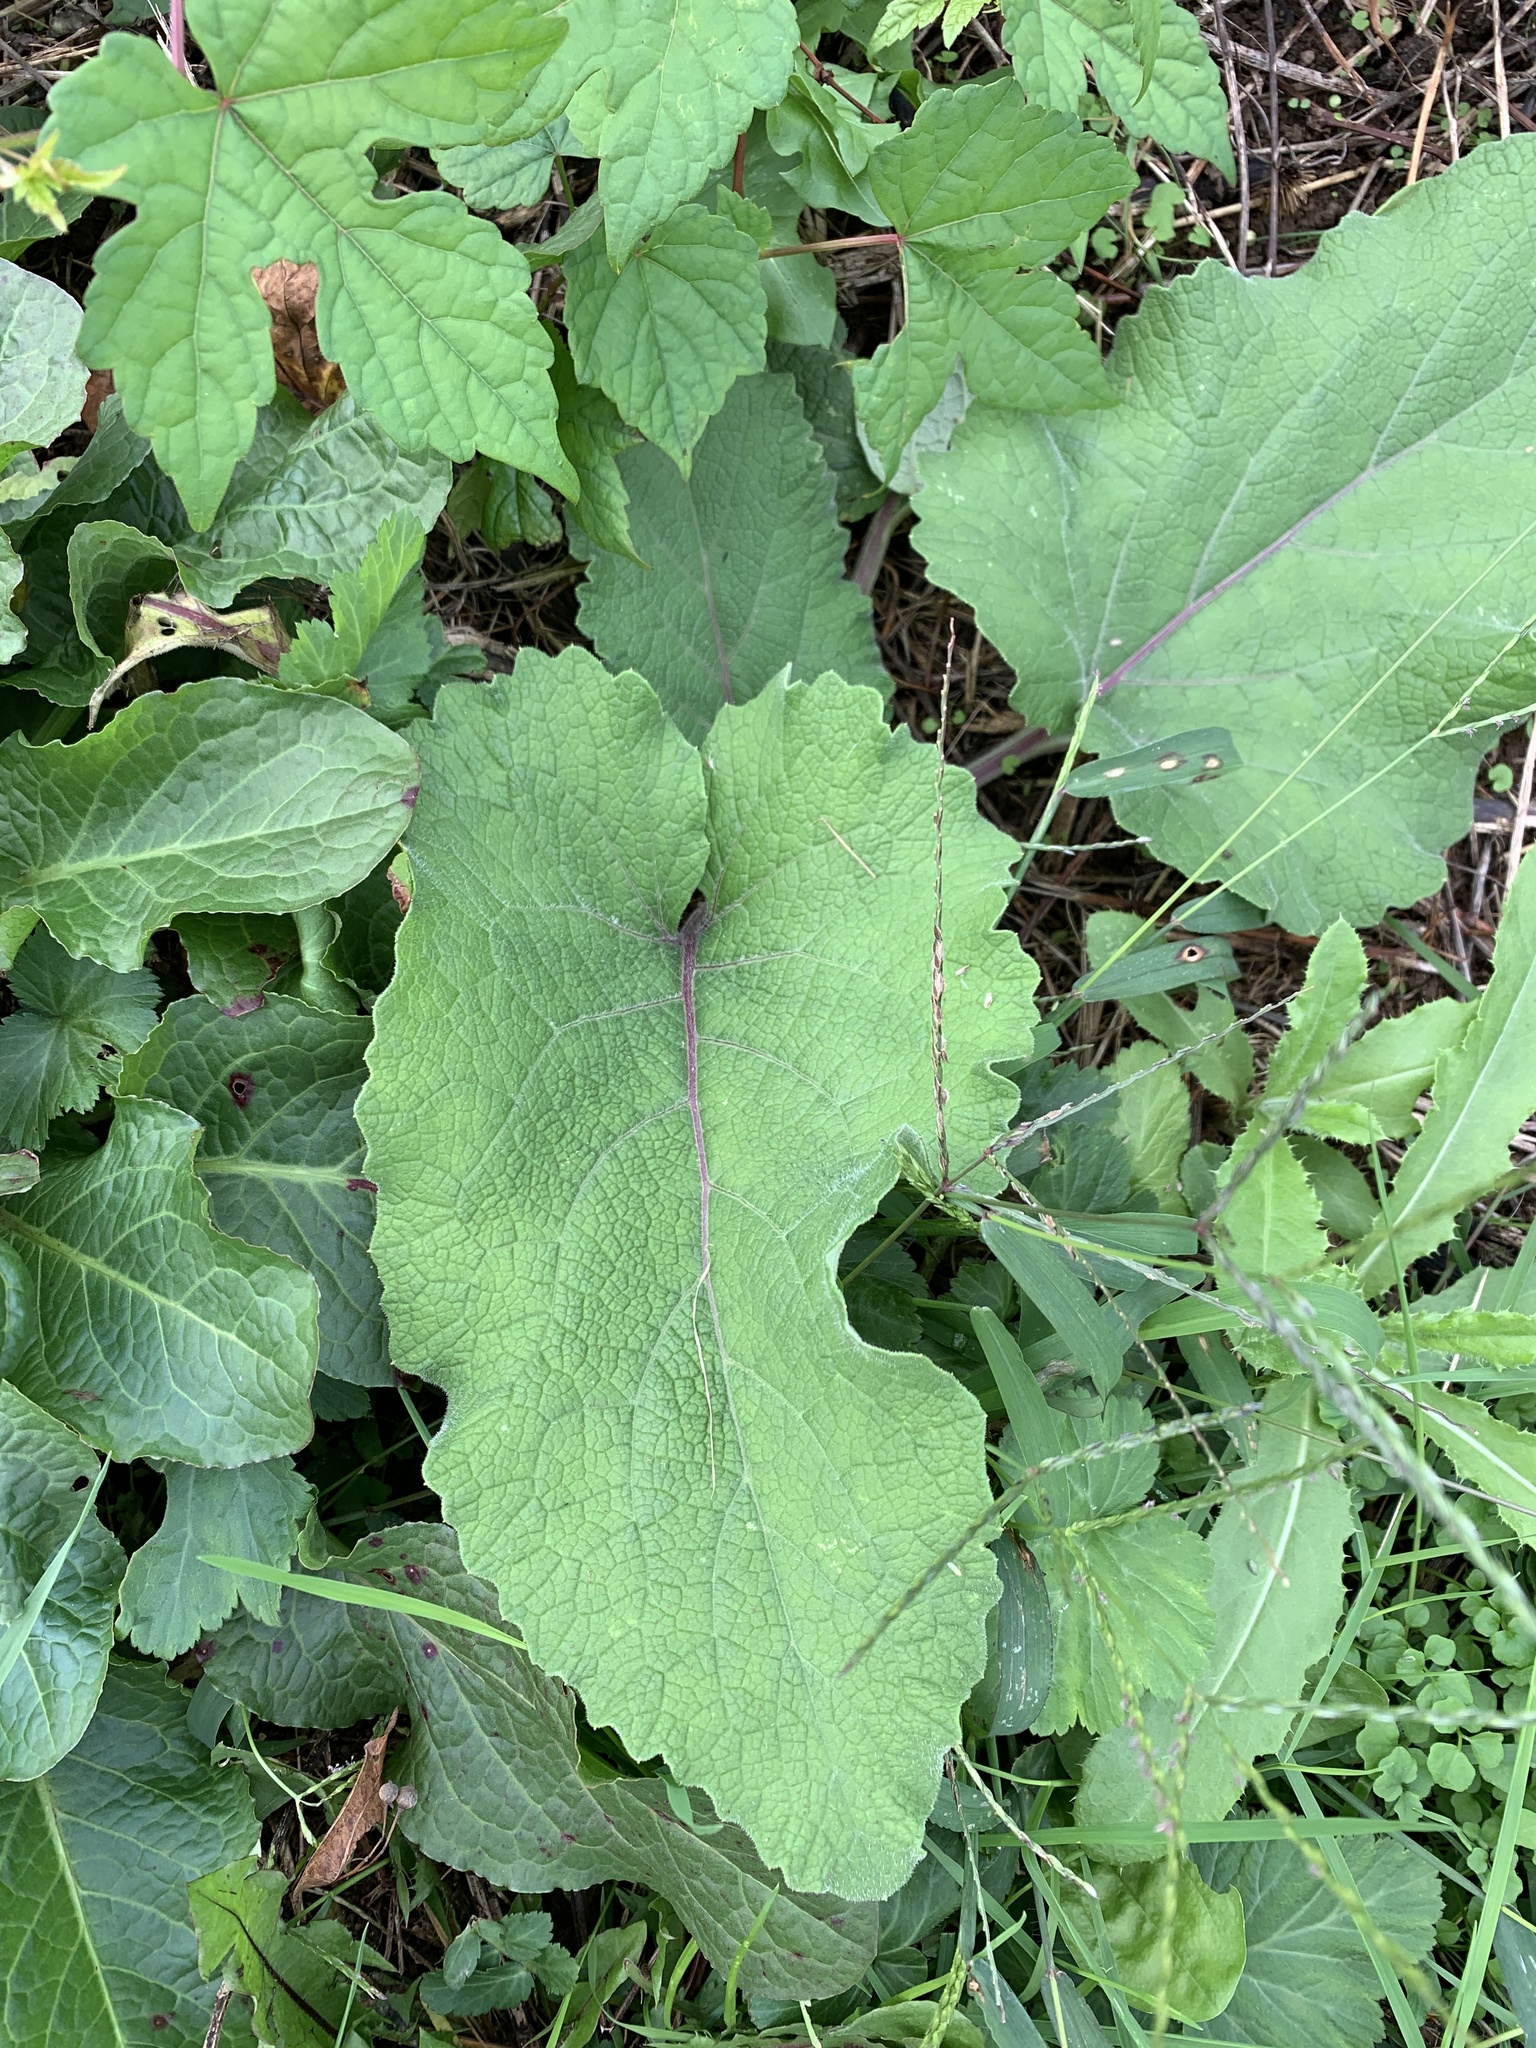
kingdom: Plantae
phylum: Tracheophyta
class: Magnoliopsida
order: Asterales
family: Asteraceae
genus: Arctium
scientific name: Arctium
